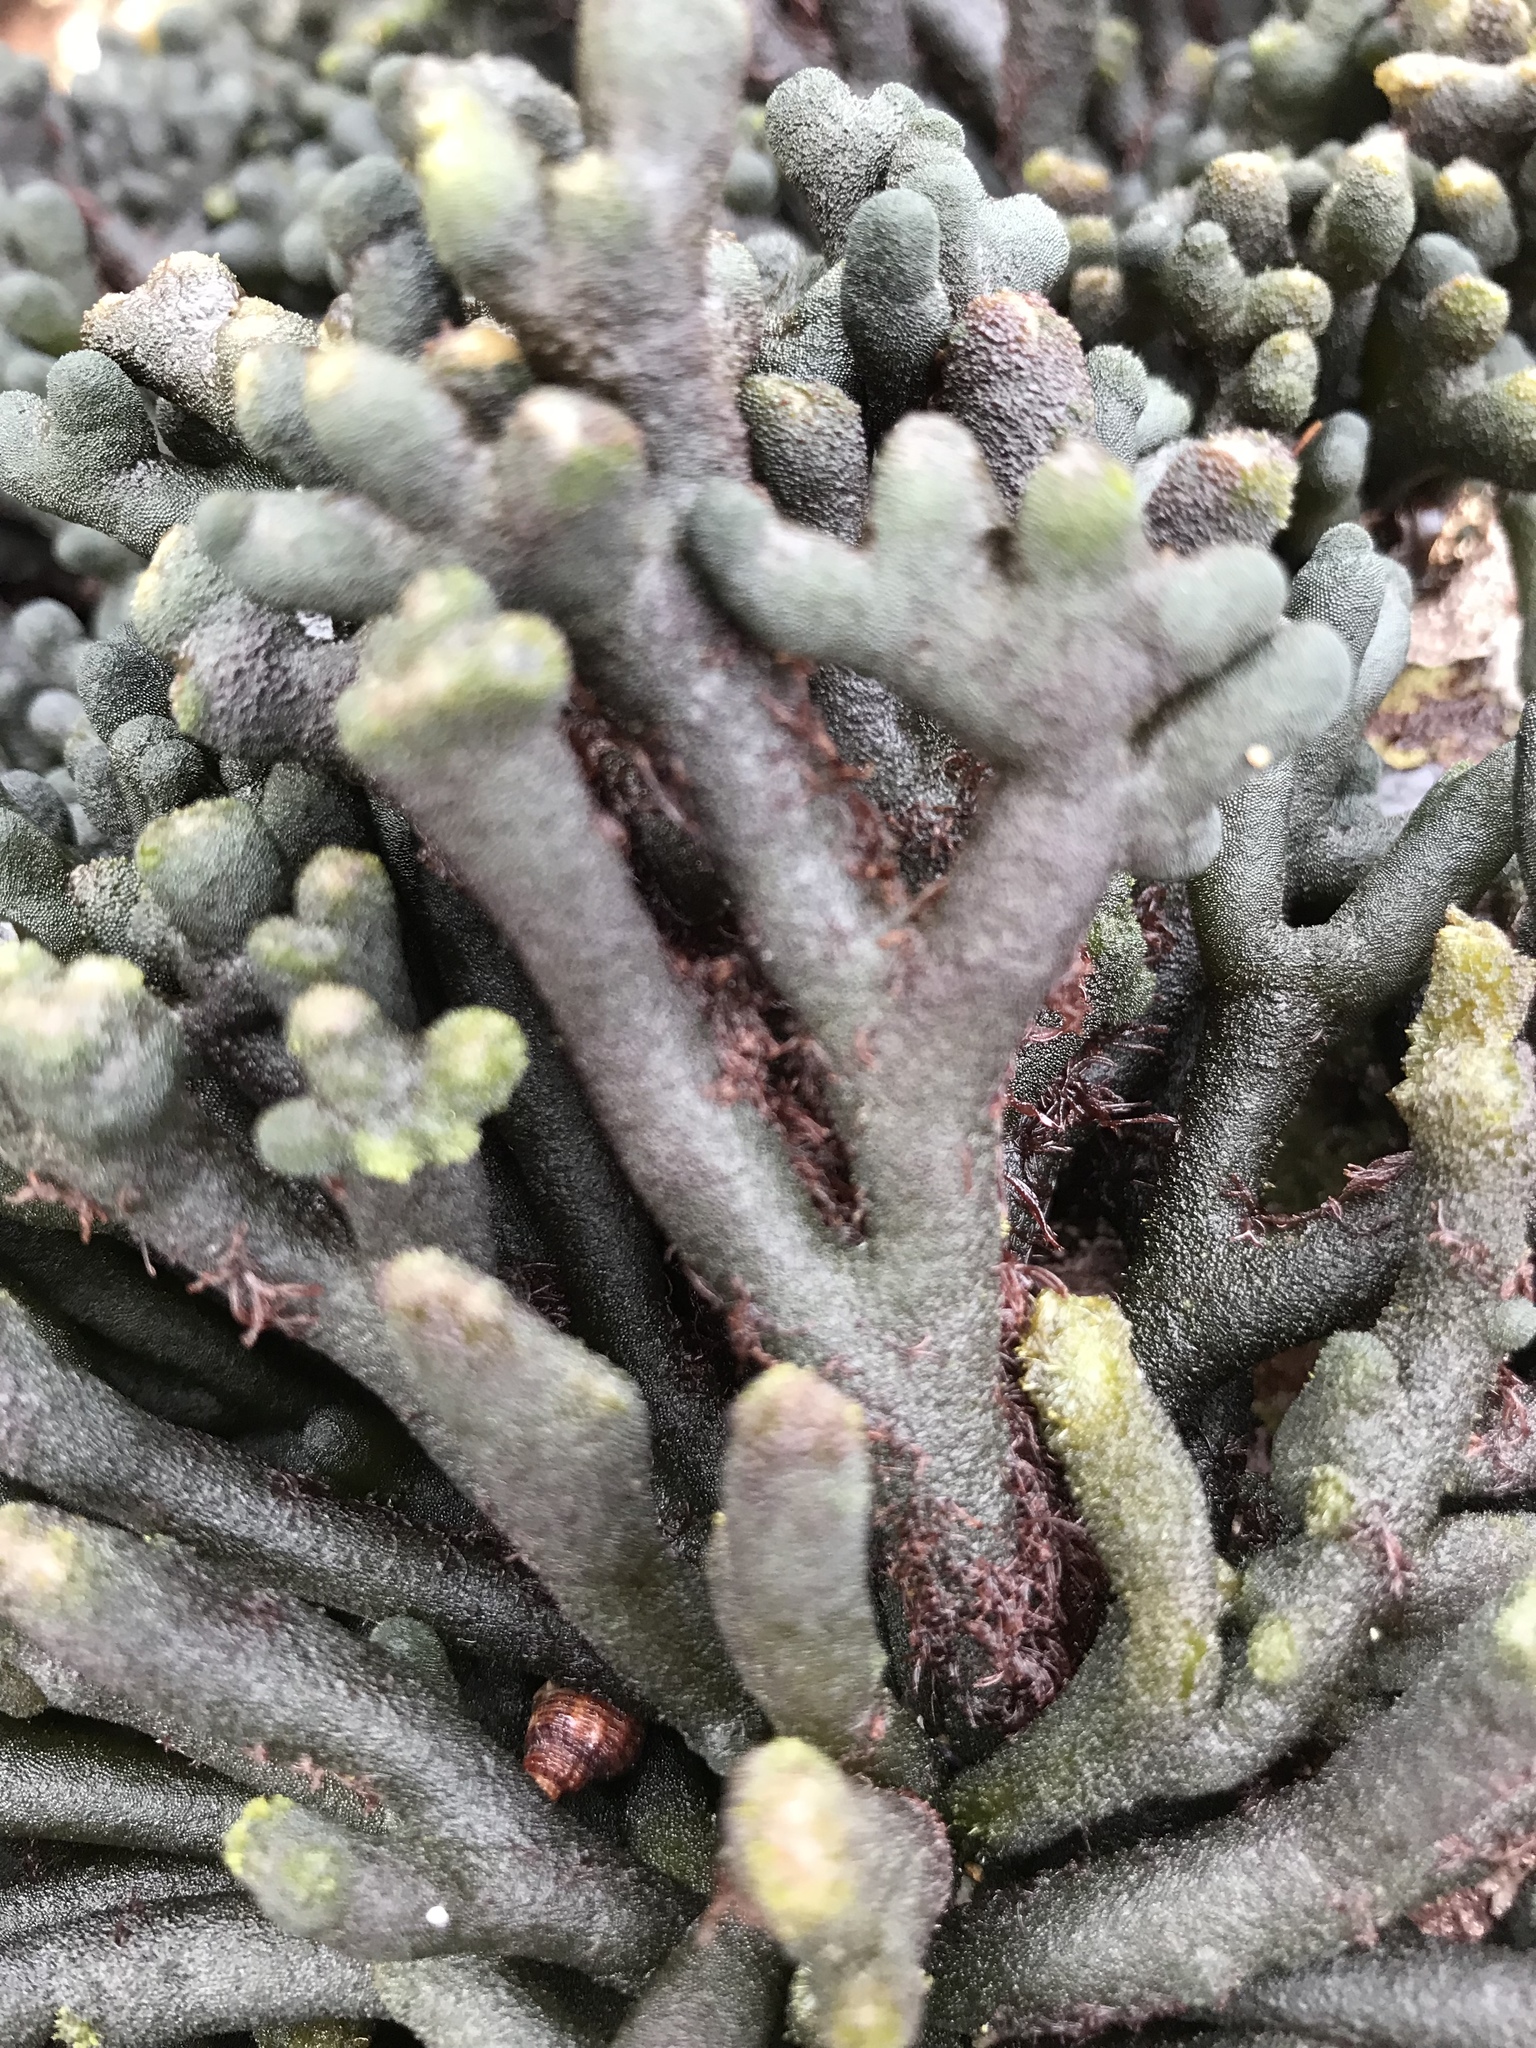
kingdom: Plantae
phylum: Chlorophyta
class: Ulvophyceae
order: Bryopsidales
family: Codiaceae
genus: Codium
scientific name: Codium fragile
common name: Dead man's fingers
